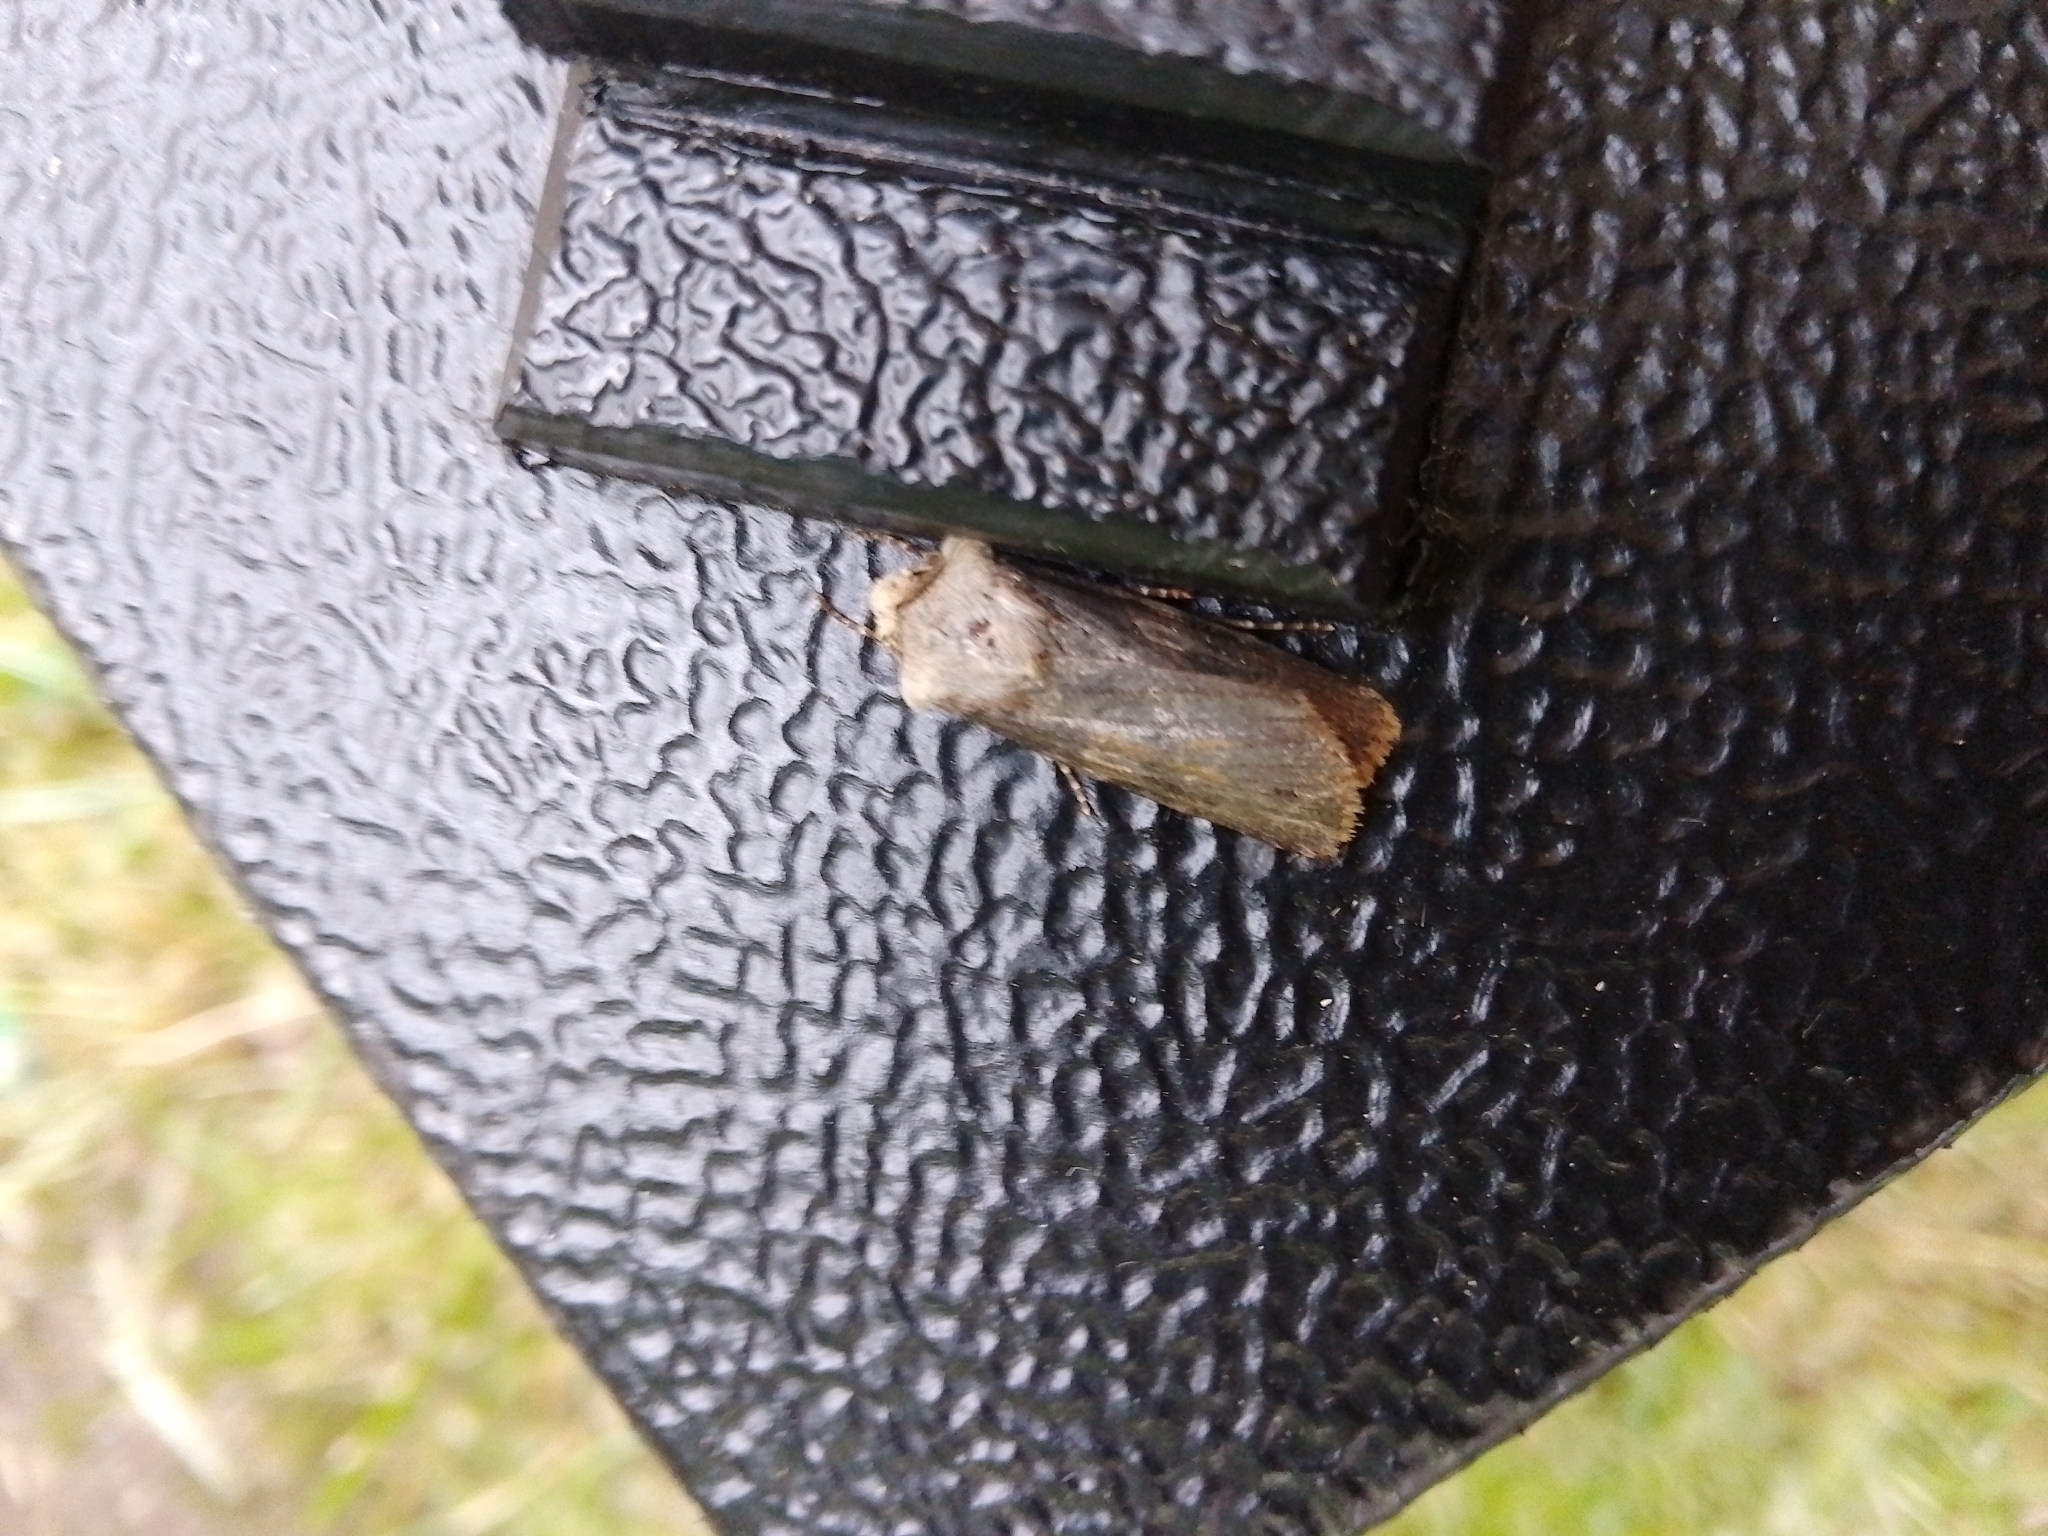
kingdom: Animalia
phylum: Arthropoda
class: Insecta
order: Lepidoptera
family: Noctuidae
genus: Agrotis
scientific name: Agrotis puta
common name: Shuttle-shaped dart
